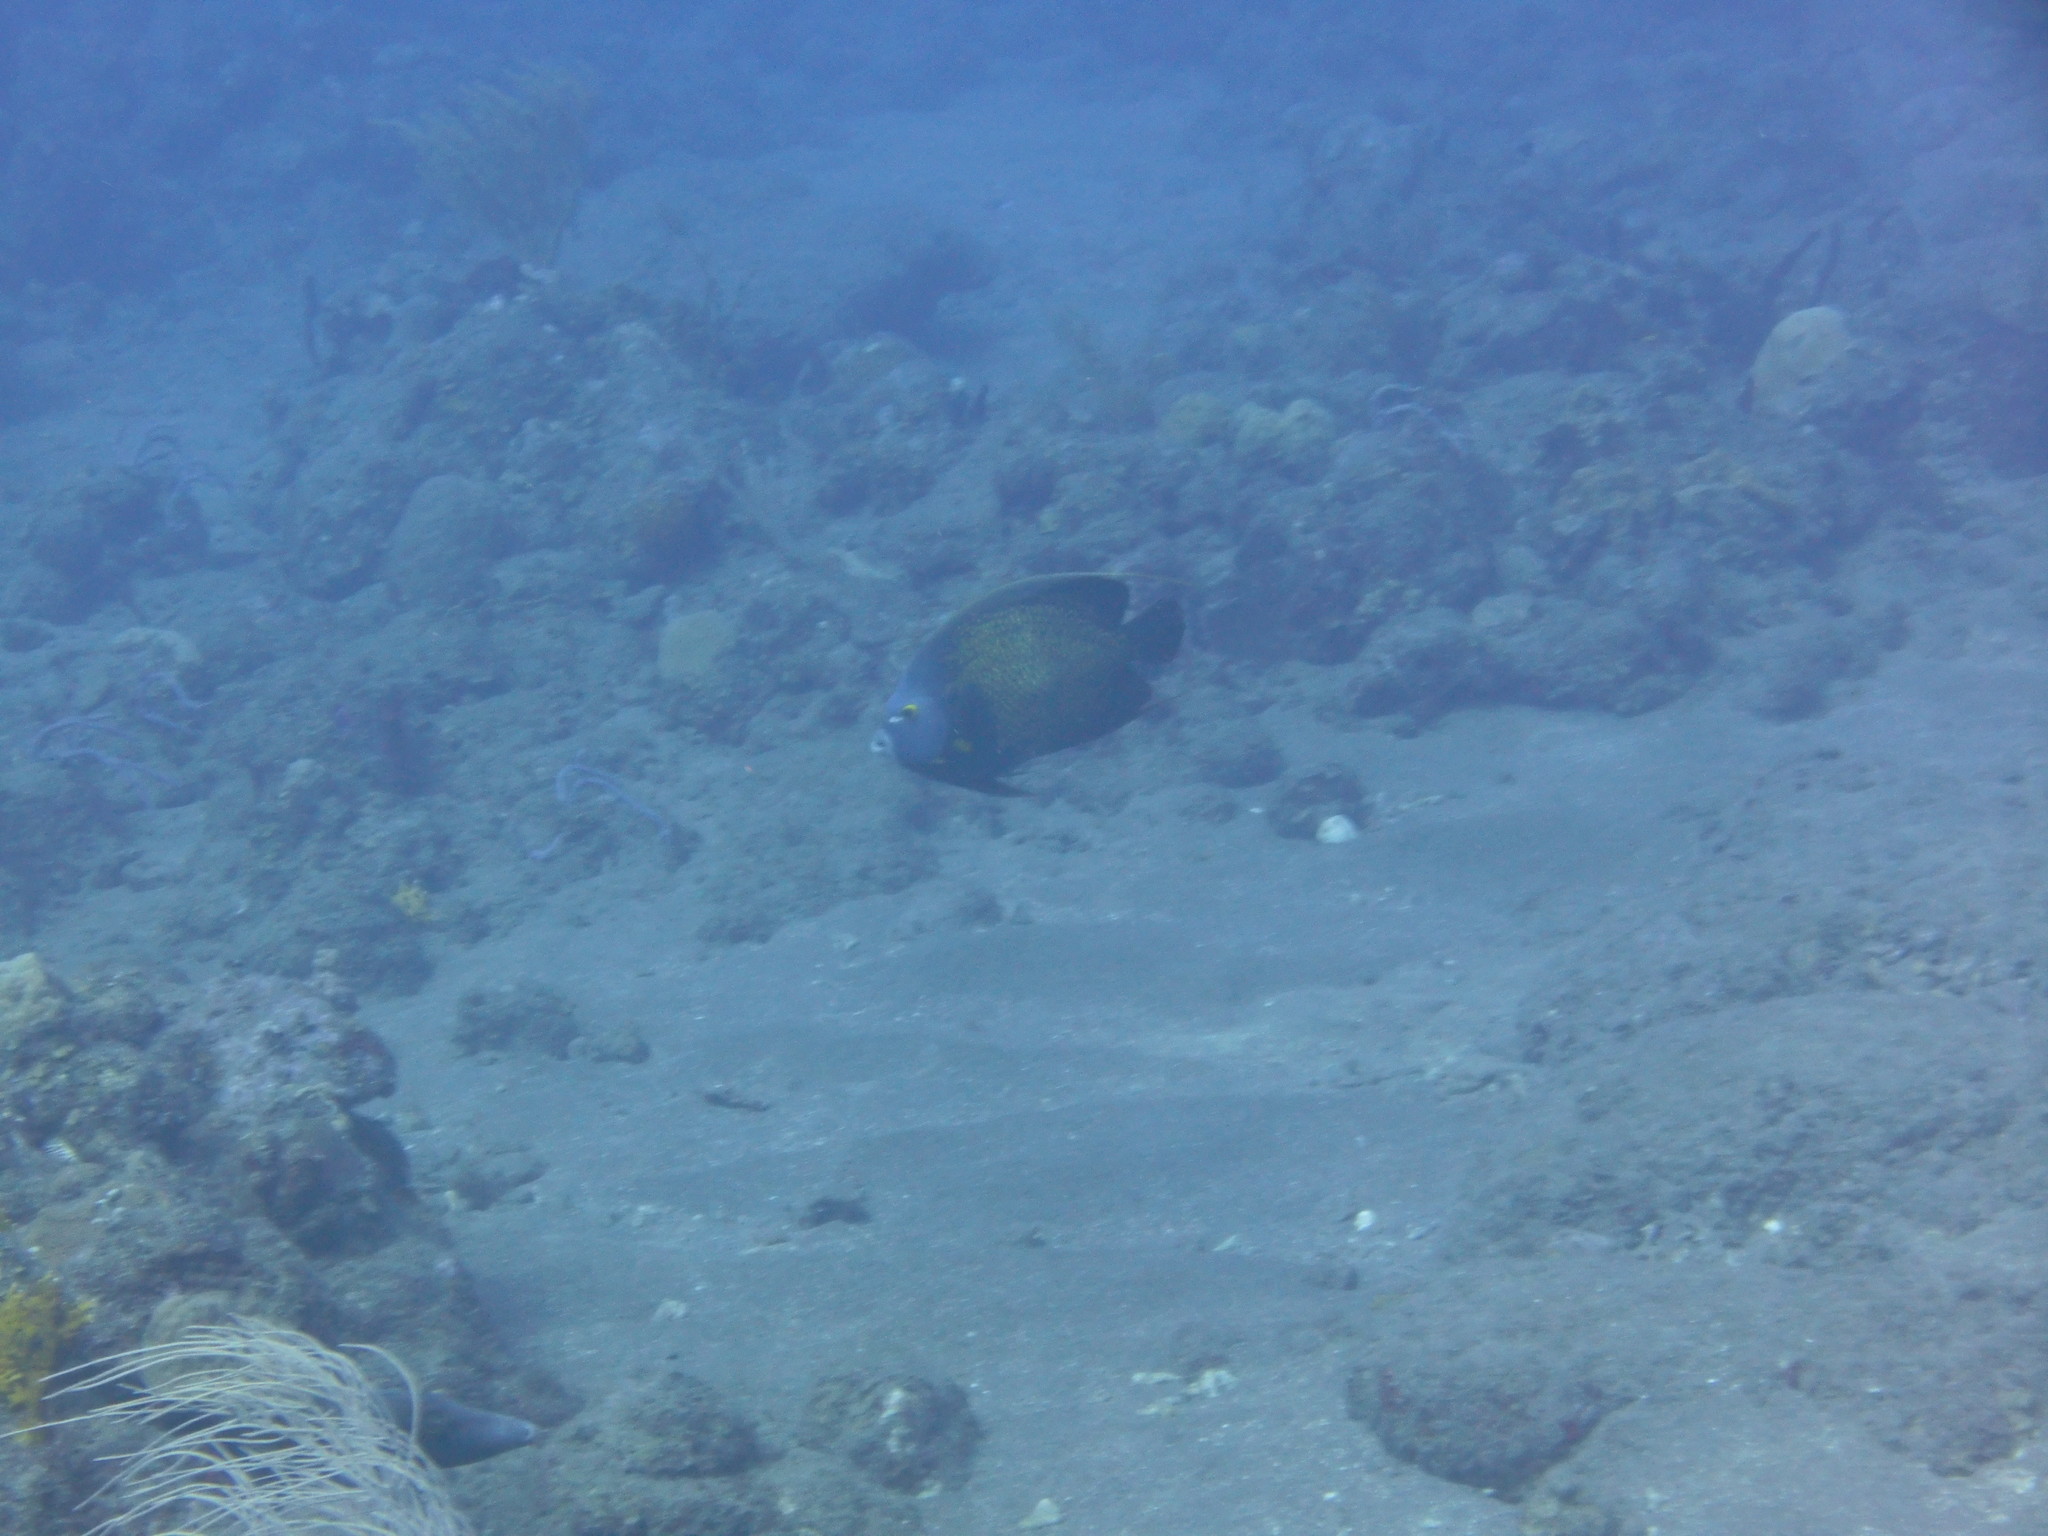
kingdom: Animalia
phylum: Chordata
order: Perciformes
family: Pomacanthidae
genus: Pomacanthus
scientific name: Pomacanthus paru
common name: French angelfish
